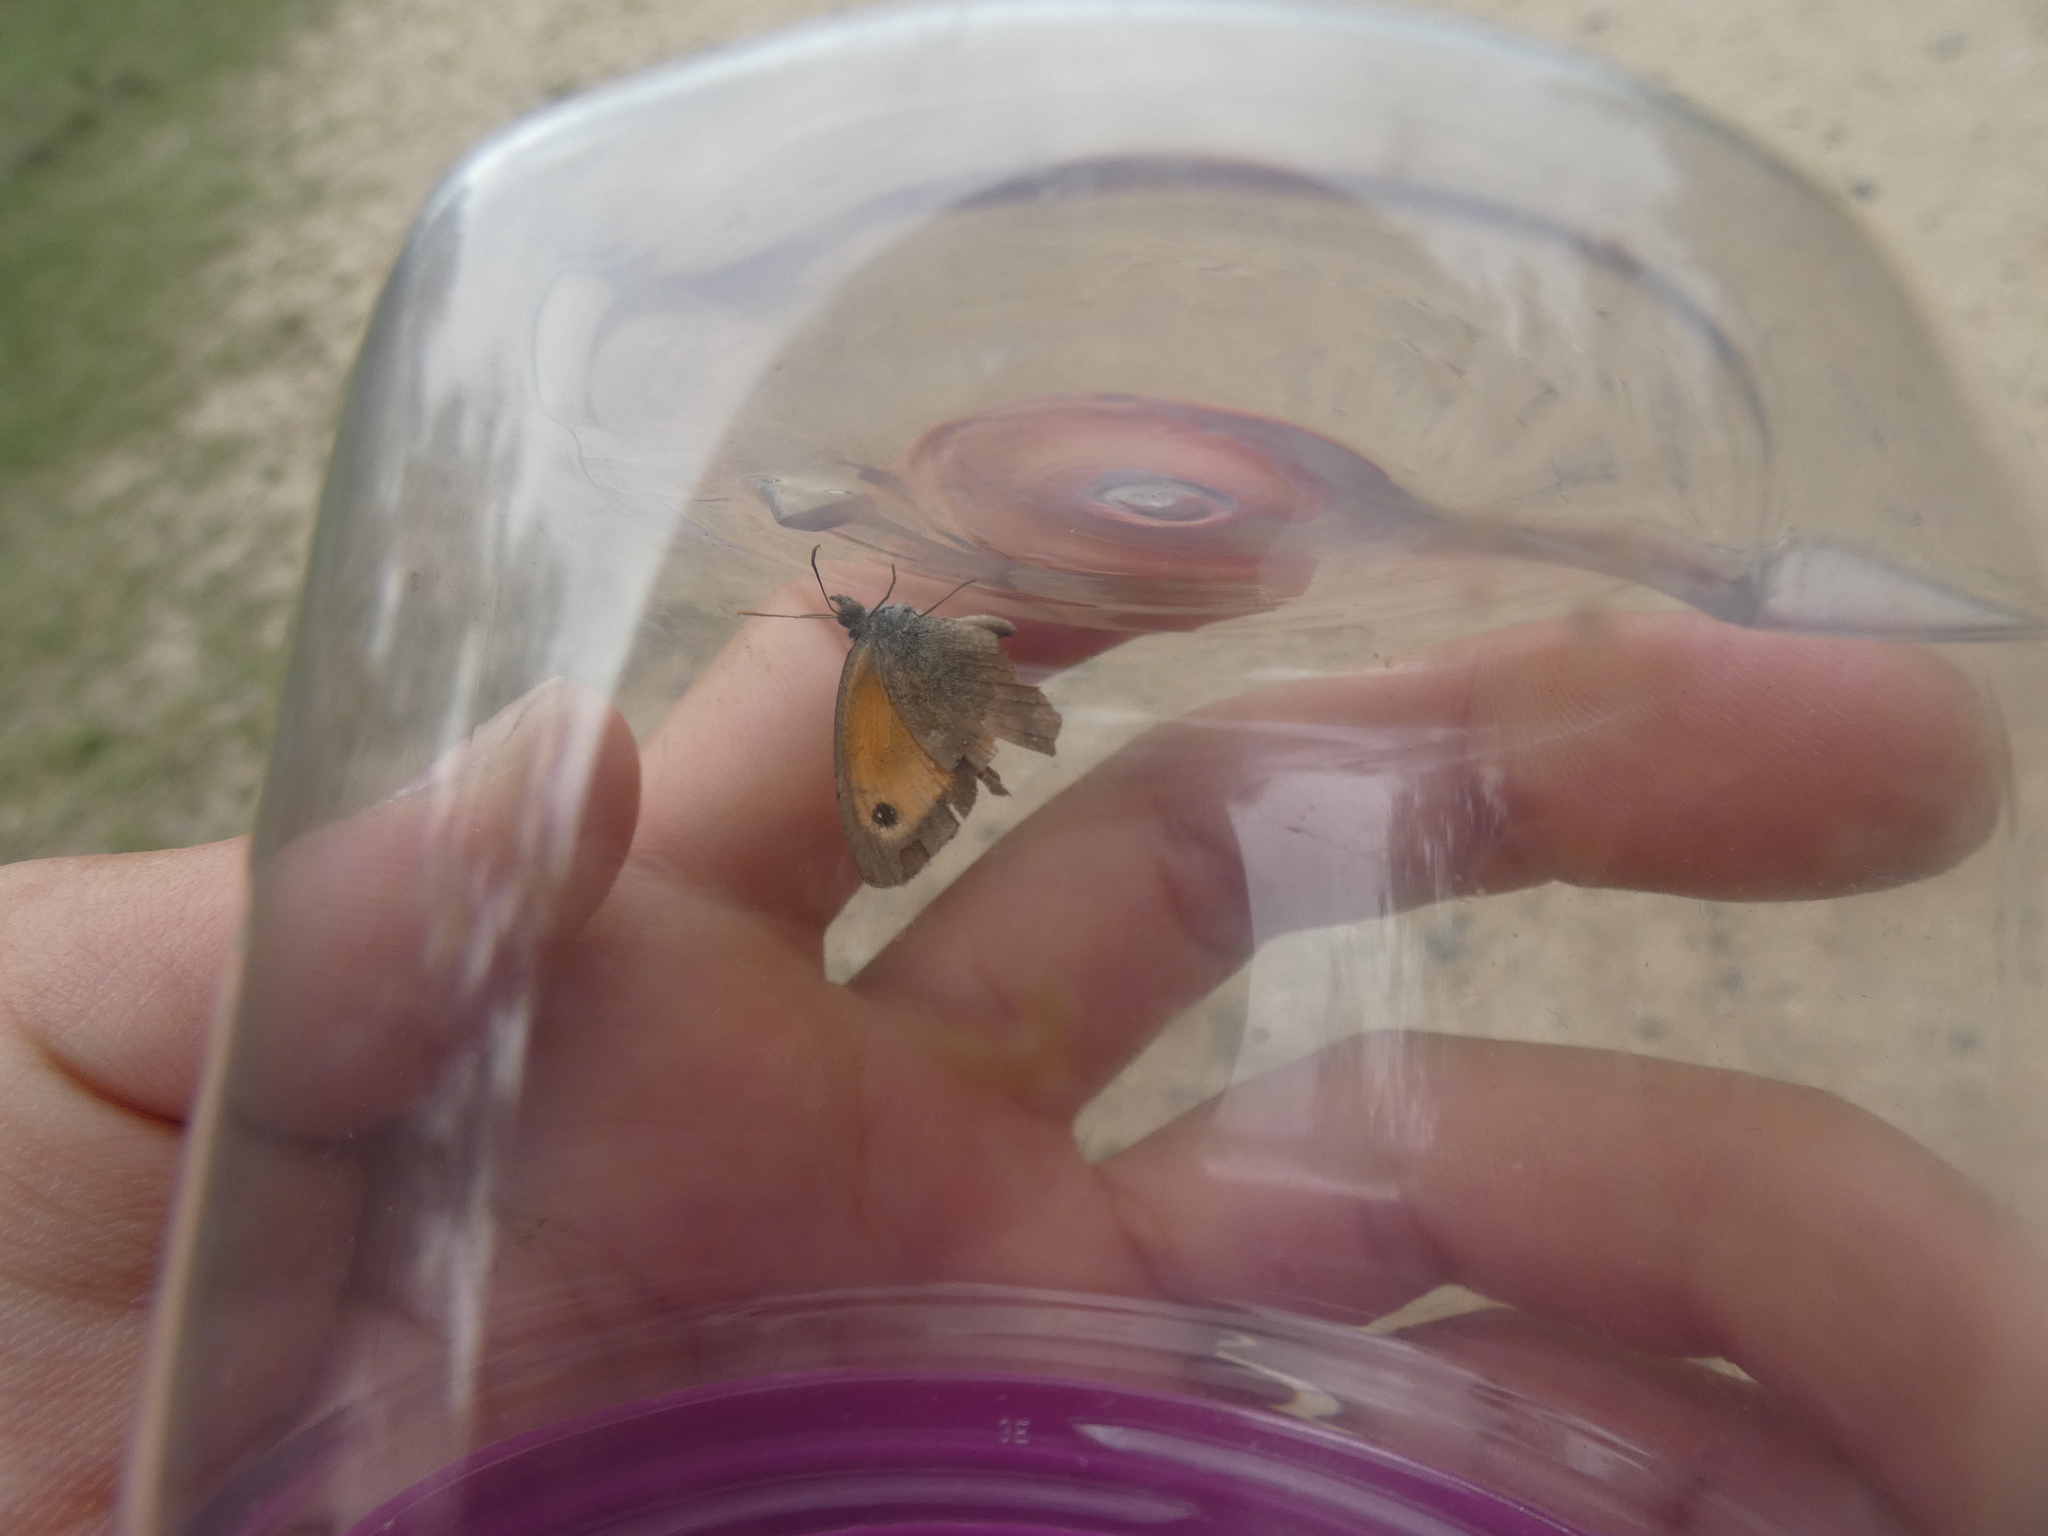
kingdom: Animalia
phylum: Arthropoda
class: Insecta
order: Lepidoptera
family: Nymphalidae
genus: Pyronia
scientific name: Pyronia tithonus
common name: Gatekeeper
